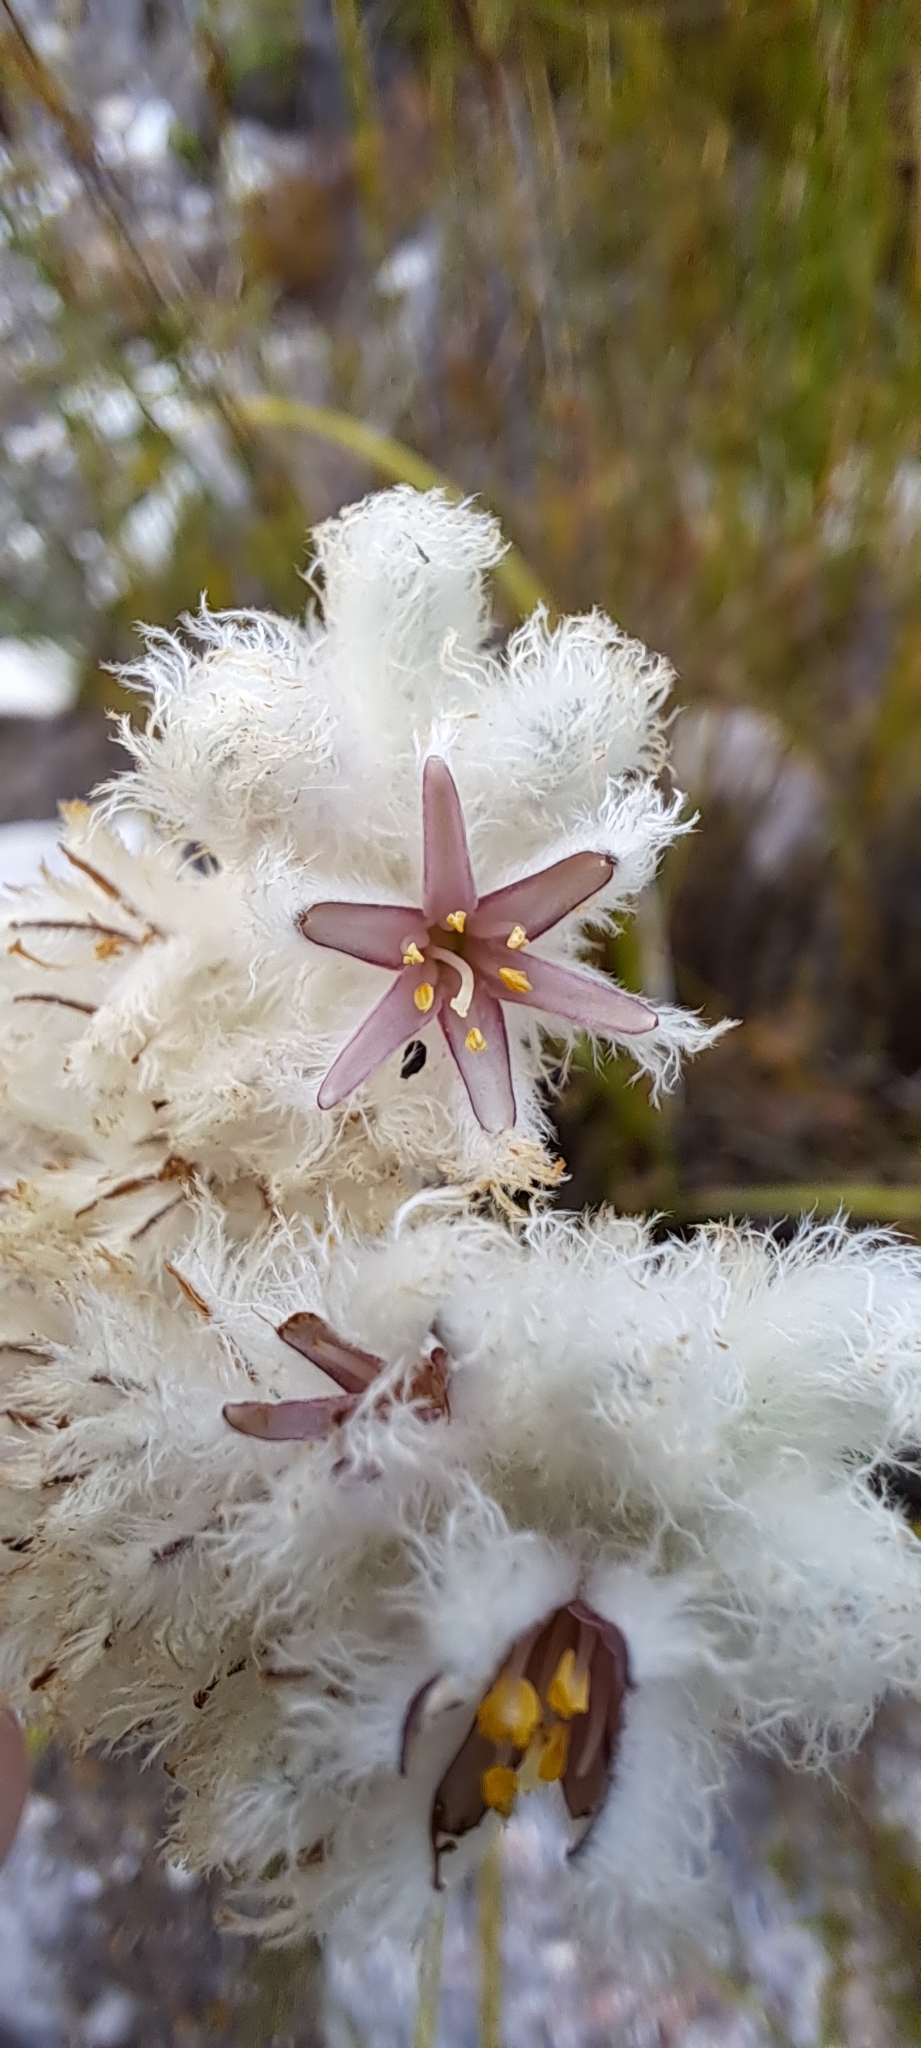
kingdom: Plantae
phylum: Tracheophyta
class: Liliopsida
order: Asparagales
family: Lanariaceae
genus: Lanaria
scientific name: Lanaria lanata
